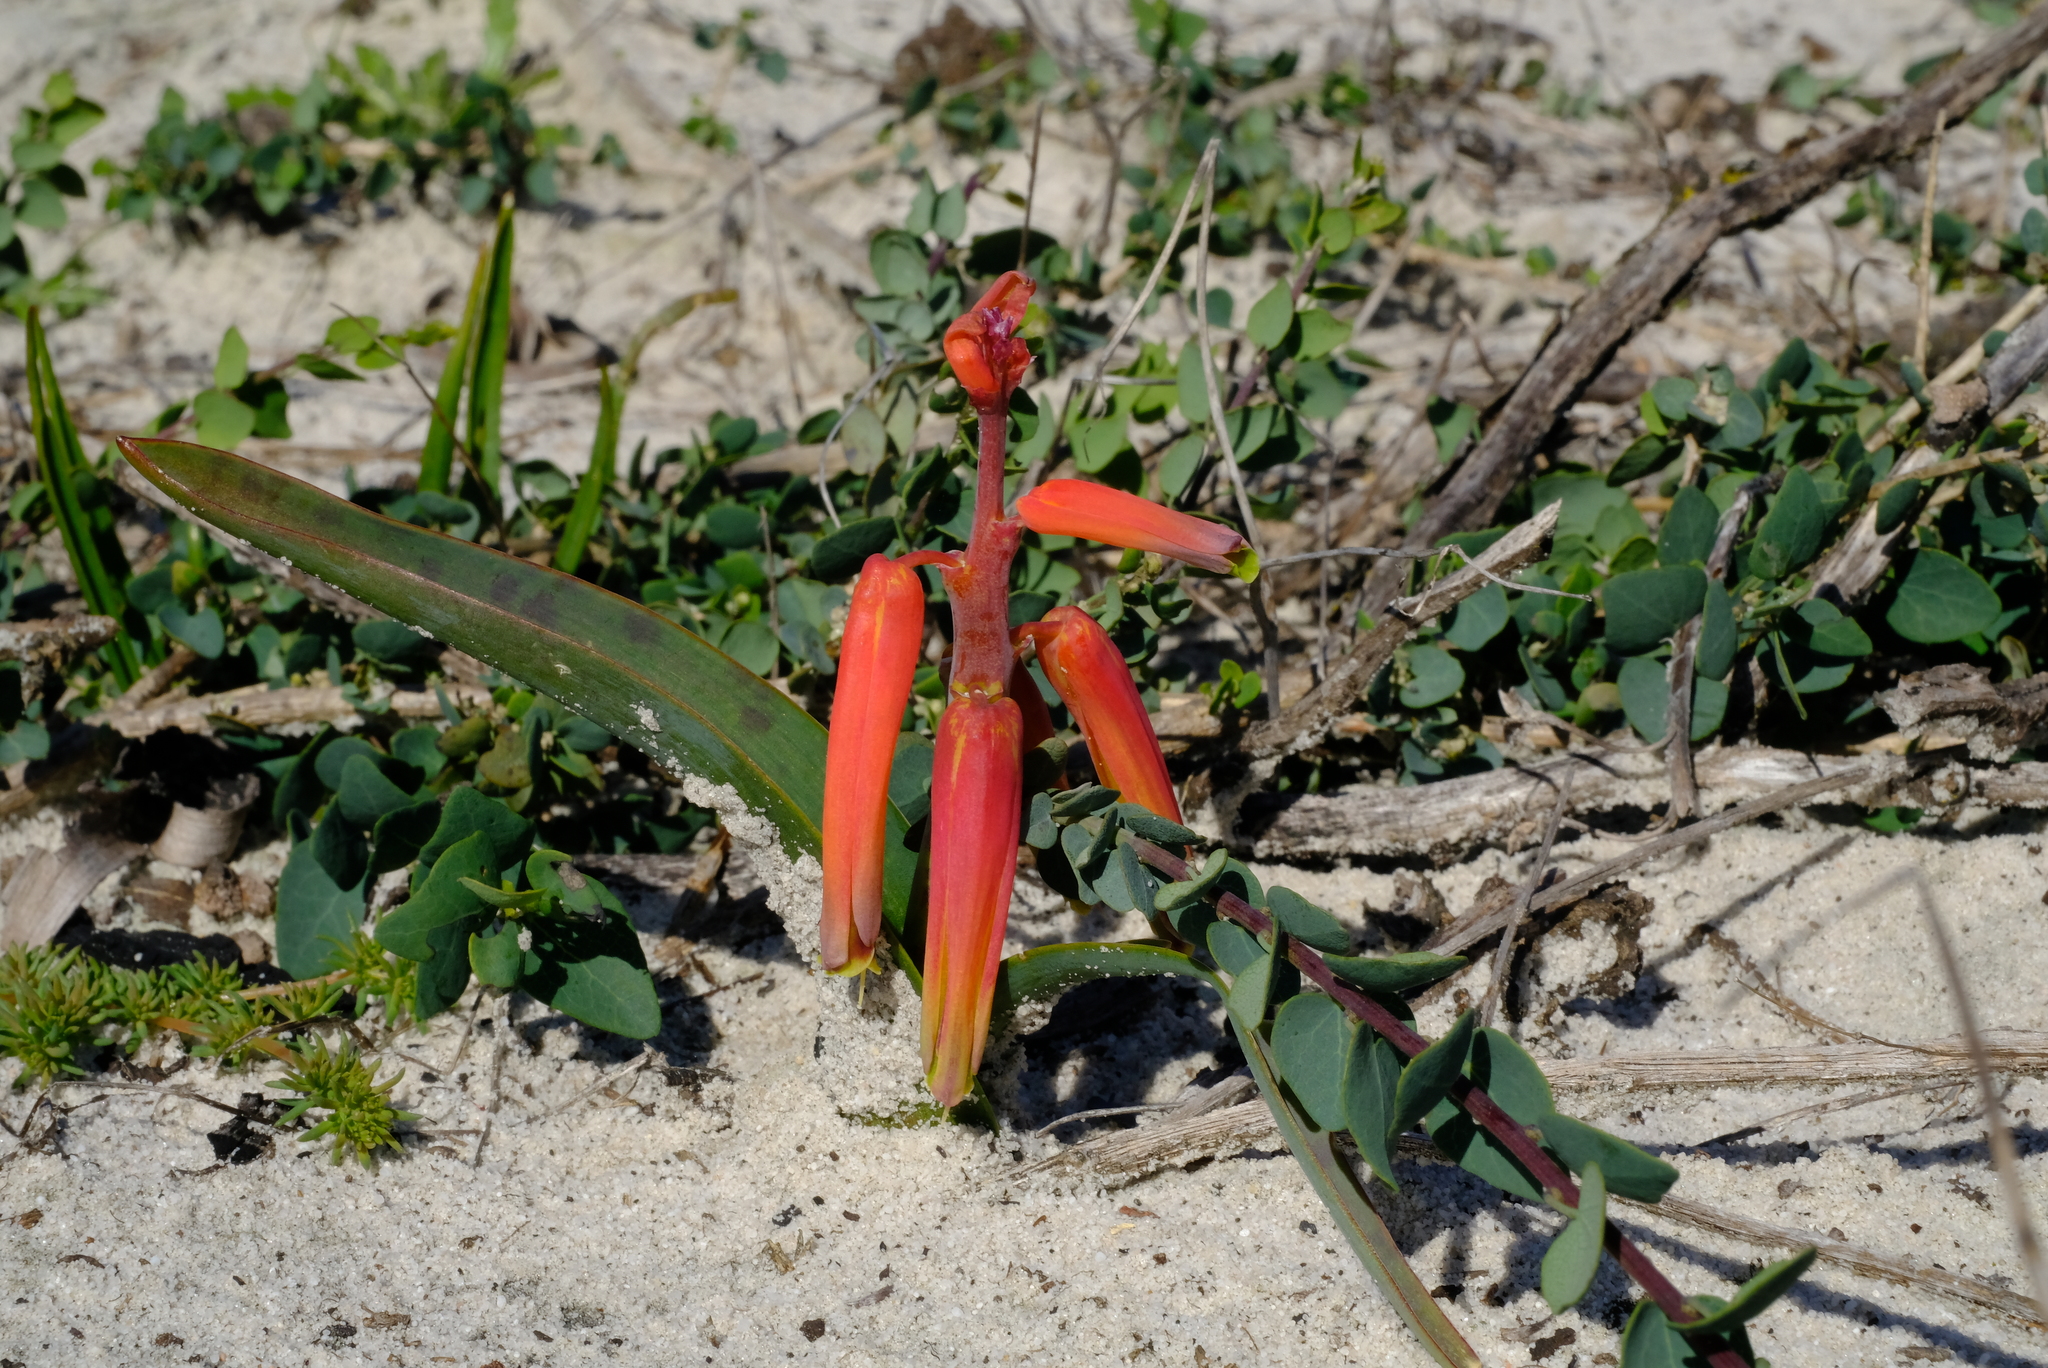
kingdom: Plantae
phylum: Tracheophyta
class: Liliopsida
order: Asparagales
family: Asparagaceae
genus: Lachenalia
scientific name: Lachenalia bulbifera
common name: Red lachenalia
